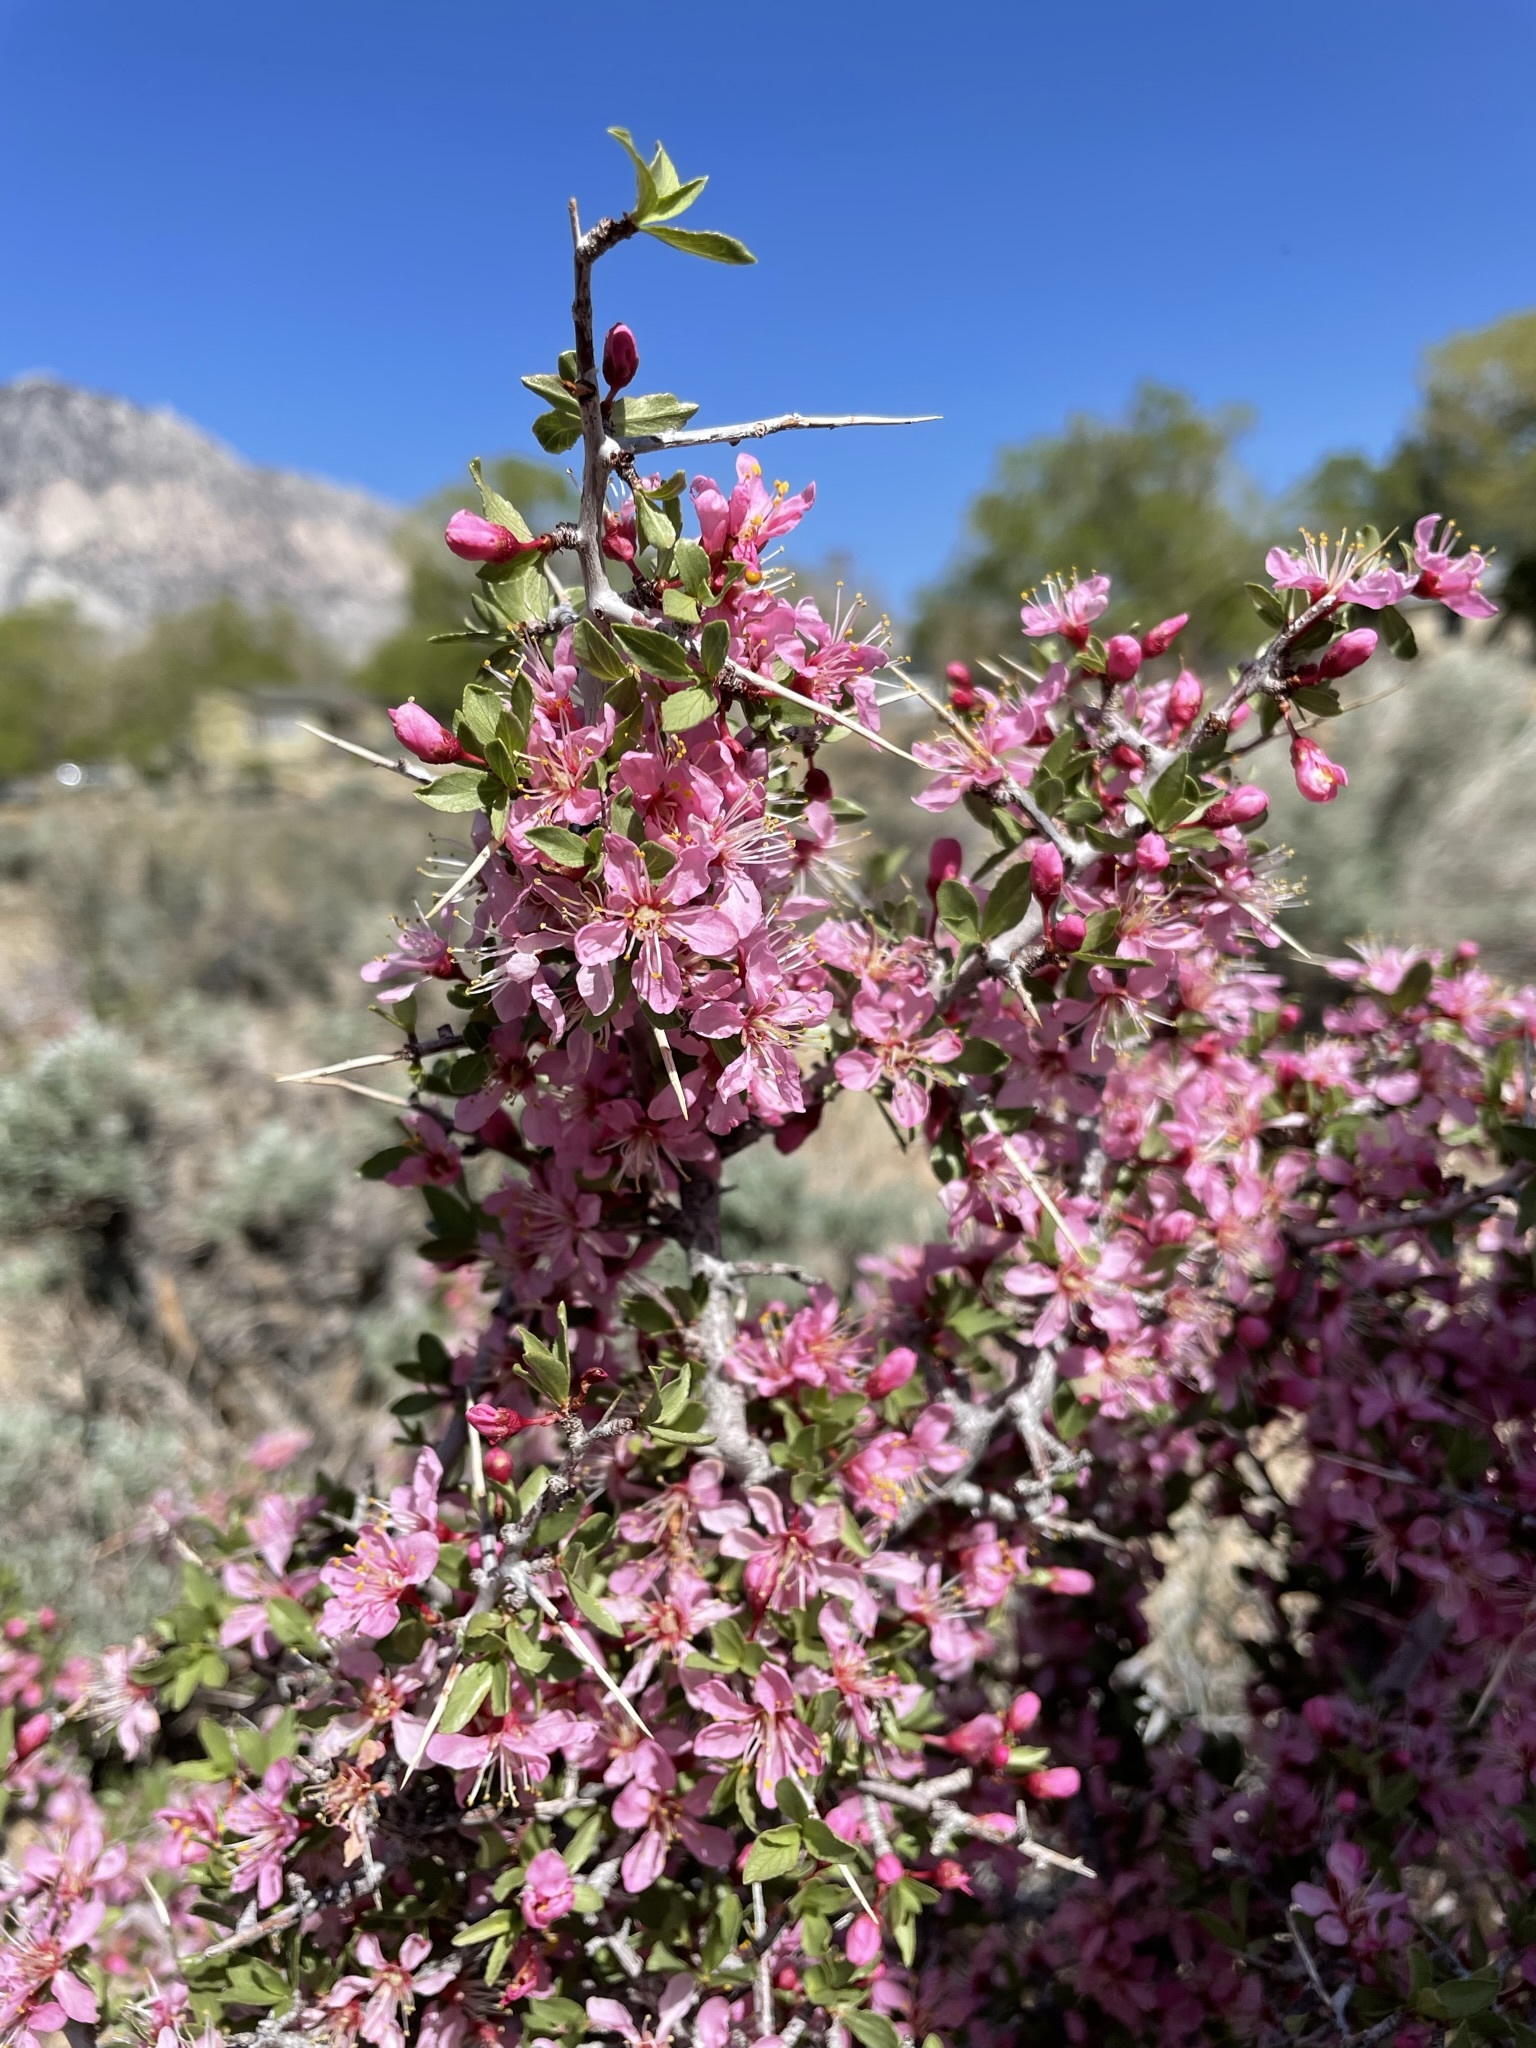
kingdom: Plantae
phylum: Tracheophyta
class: Magnoliopsida
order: Rosales
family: Rosaceae
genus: Prunus
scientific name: Prunus andersonii
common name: Desert peach
